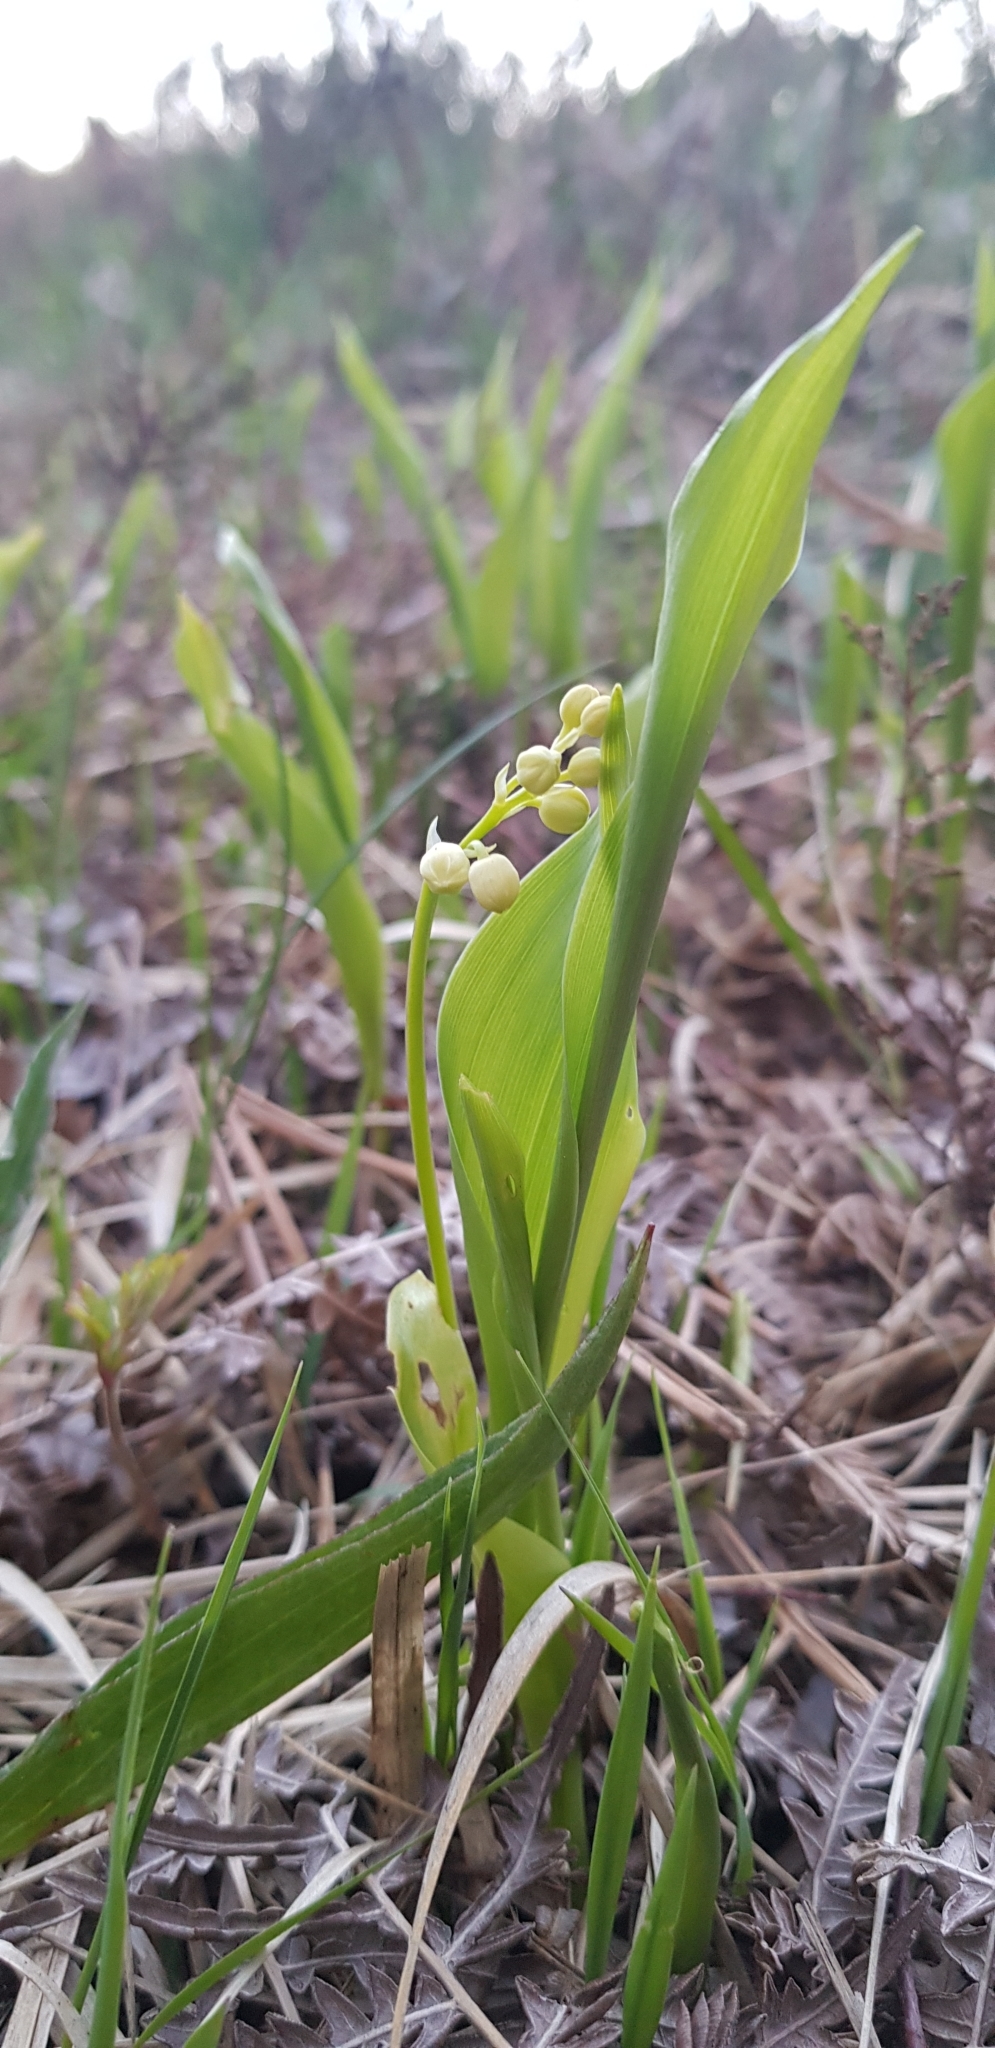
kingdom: Plantae
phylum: Tracheophyta
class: Liliopsida
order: Asparagales
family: Asparagaceae
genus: Convallaria
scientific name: Convallaria majalis
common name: Lily-of-the-valley
